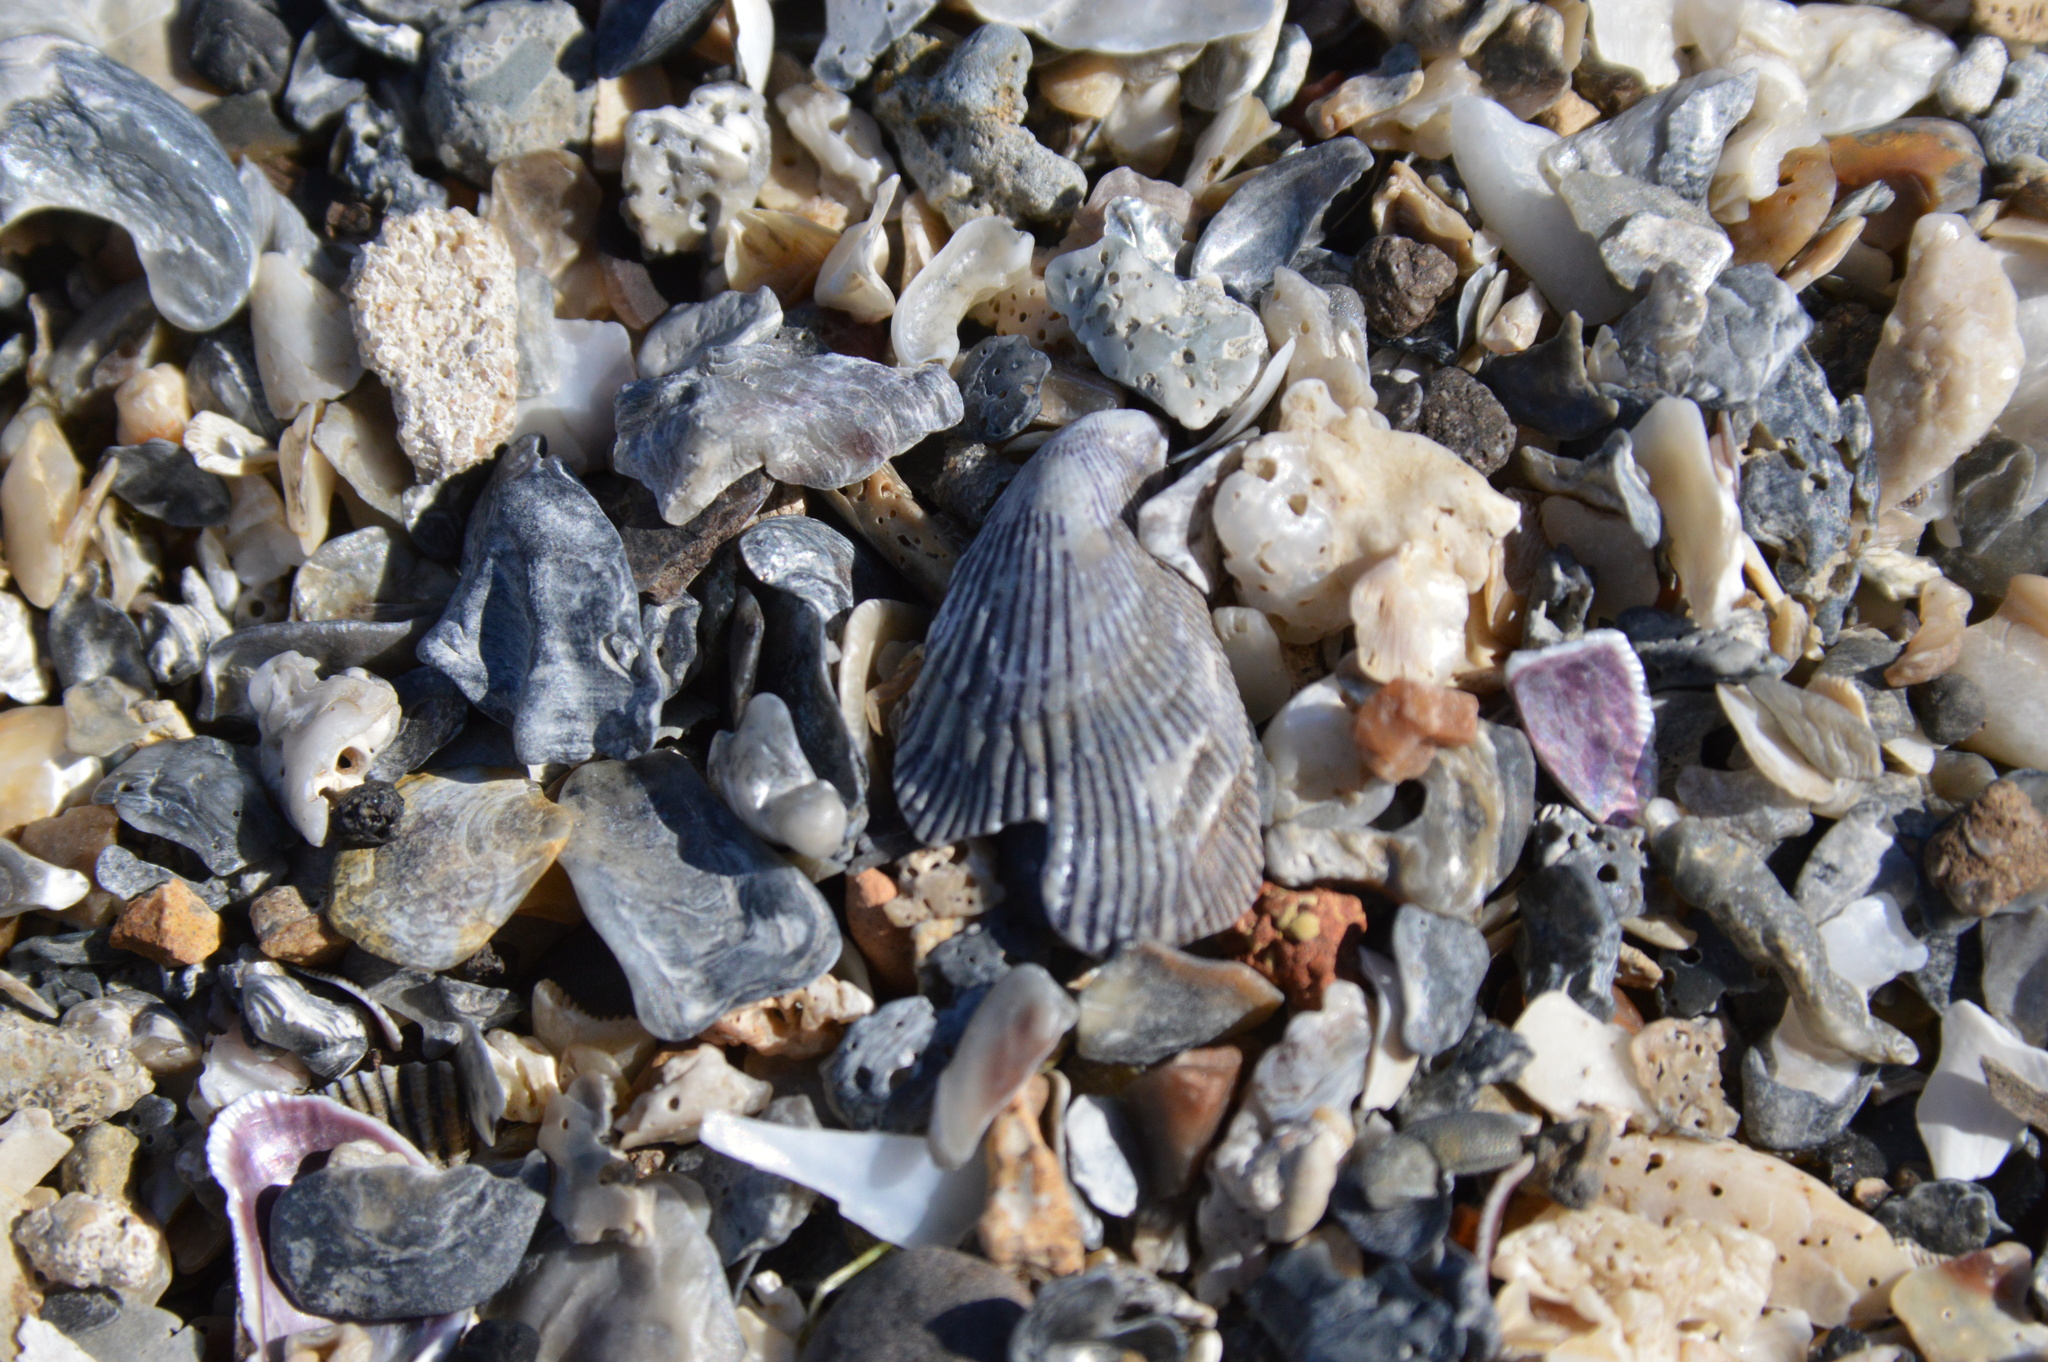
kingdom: Animalia
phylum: Mollusca
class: Bivalvia
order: Mytilida
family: Mytilidae
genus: Ischadium
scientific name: Ischadium recurvum
